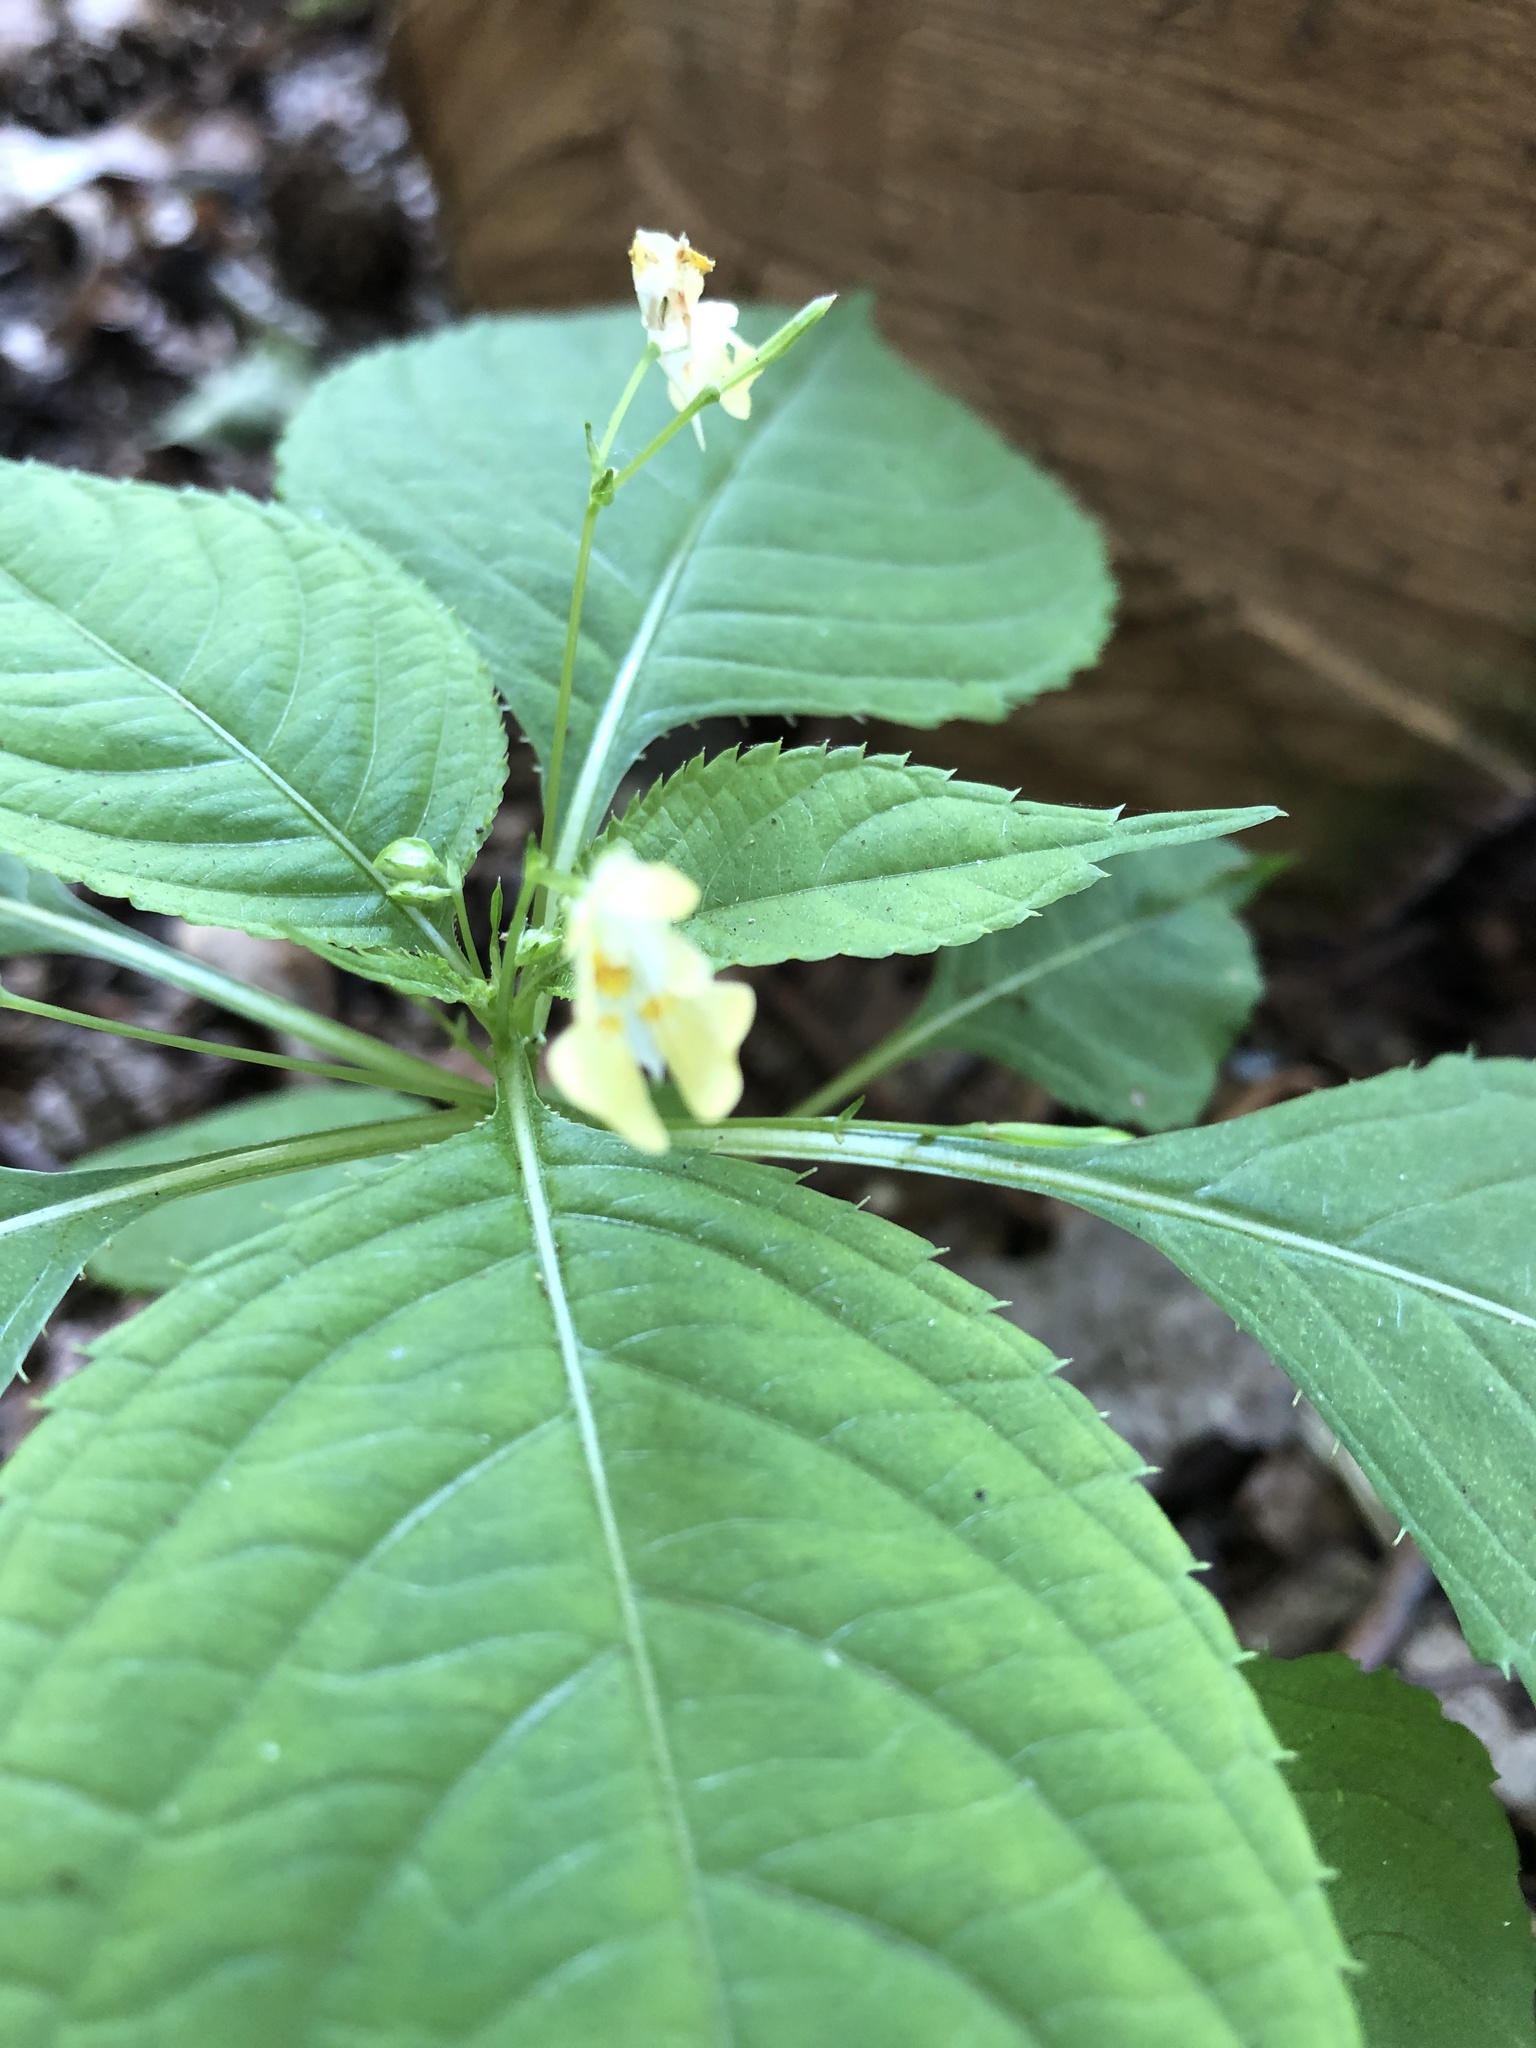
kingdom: Plantae
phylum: Tracheophyta
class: Magnoliopsida
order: Ericales
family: Balsaminaceae
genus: Impatiens
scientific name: Impatiens parviflora
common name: Small balsam
